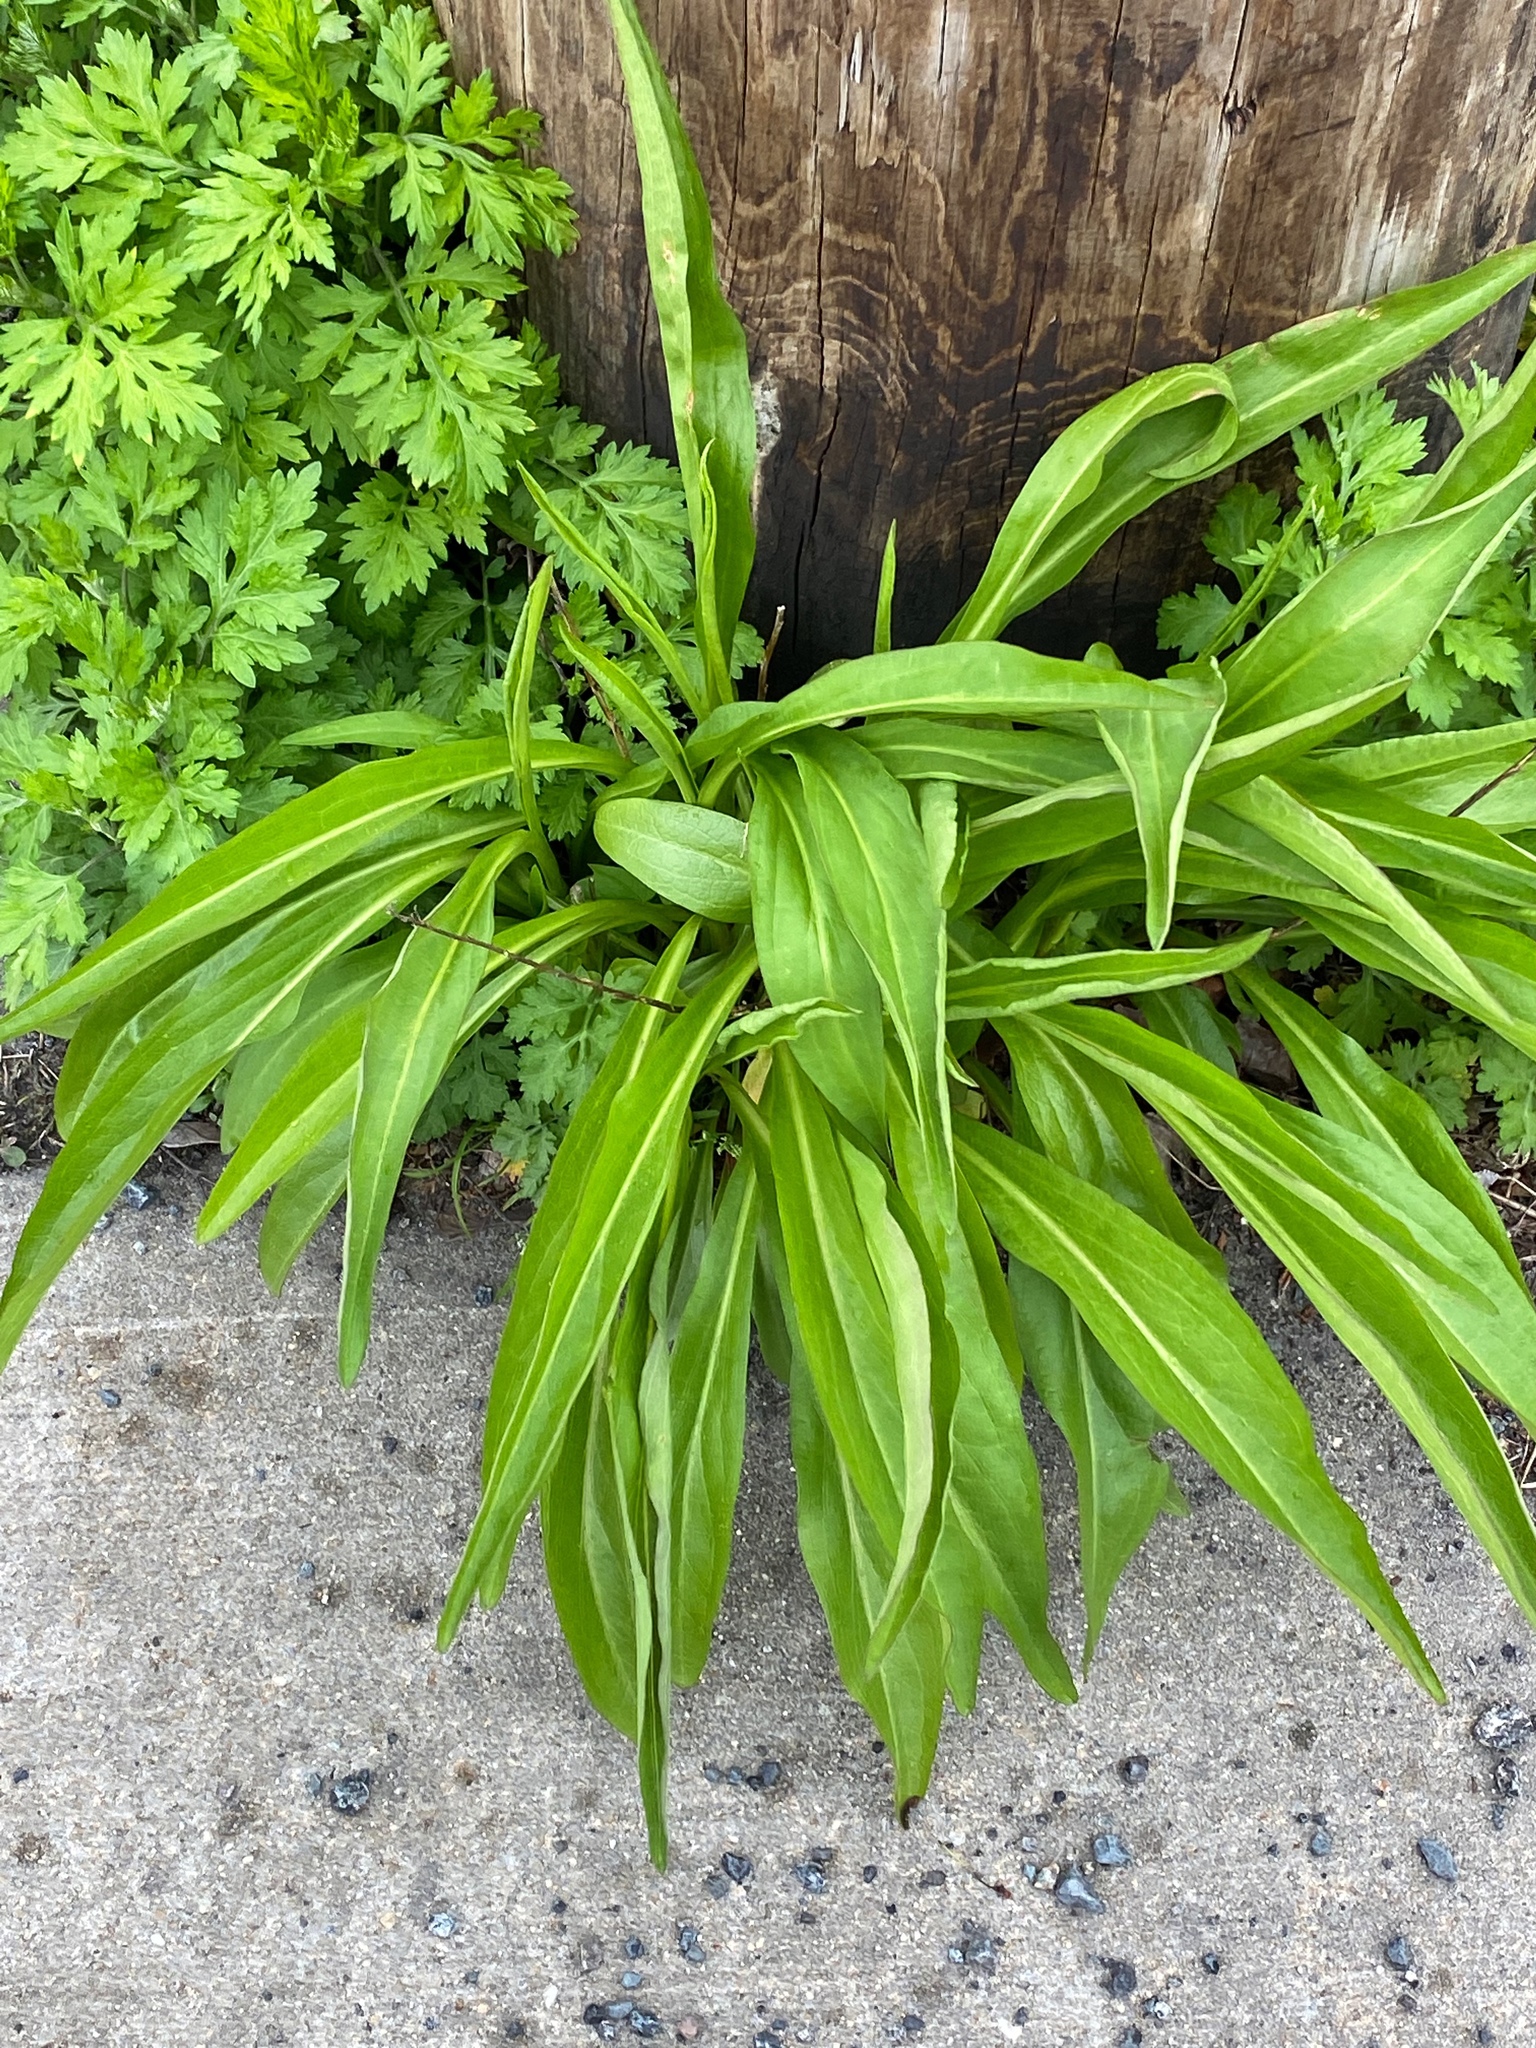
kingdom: Plantae
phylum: Tracheophyta
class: Magnoliopsida
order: Asterales
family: Asteraceae
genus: Solidago
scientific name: Solidago sempervirens
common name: Salt-marsh goldenrod
